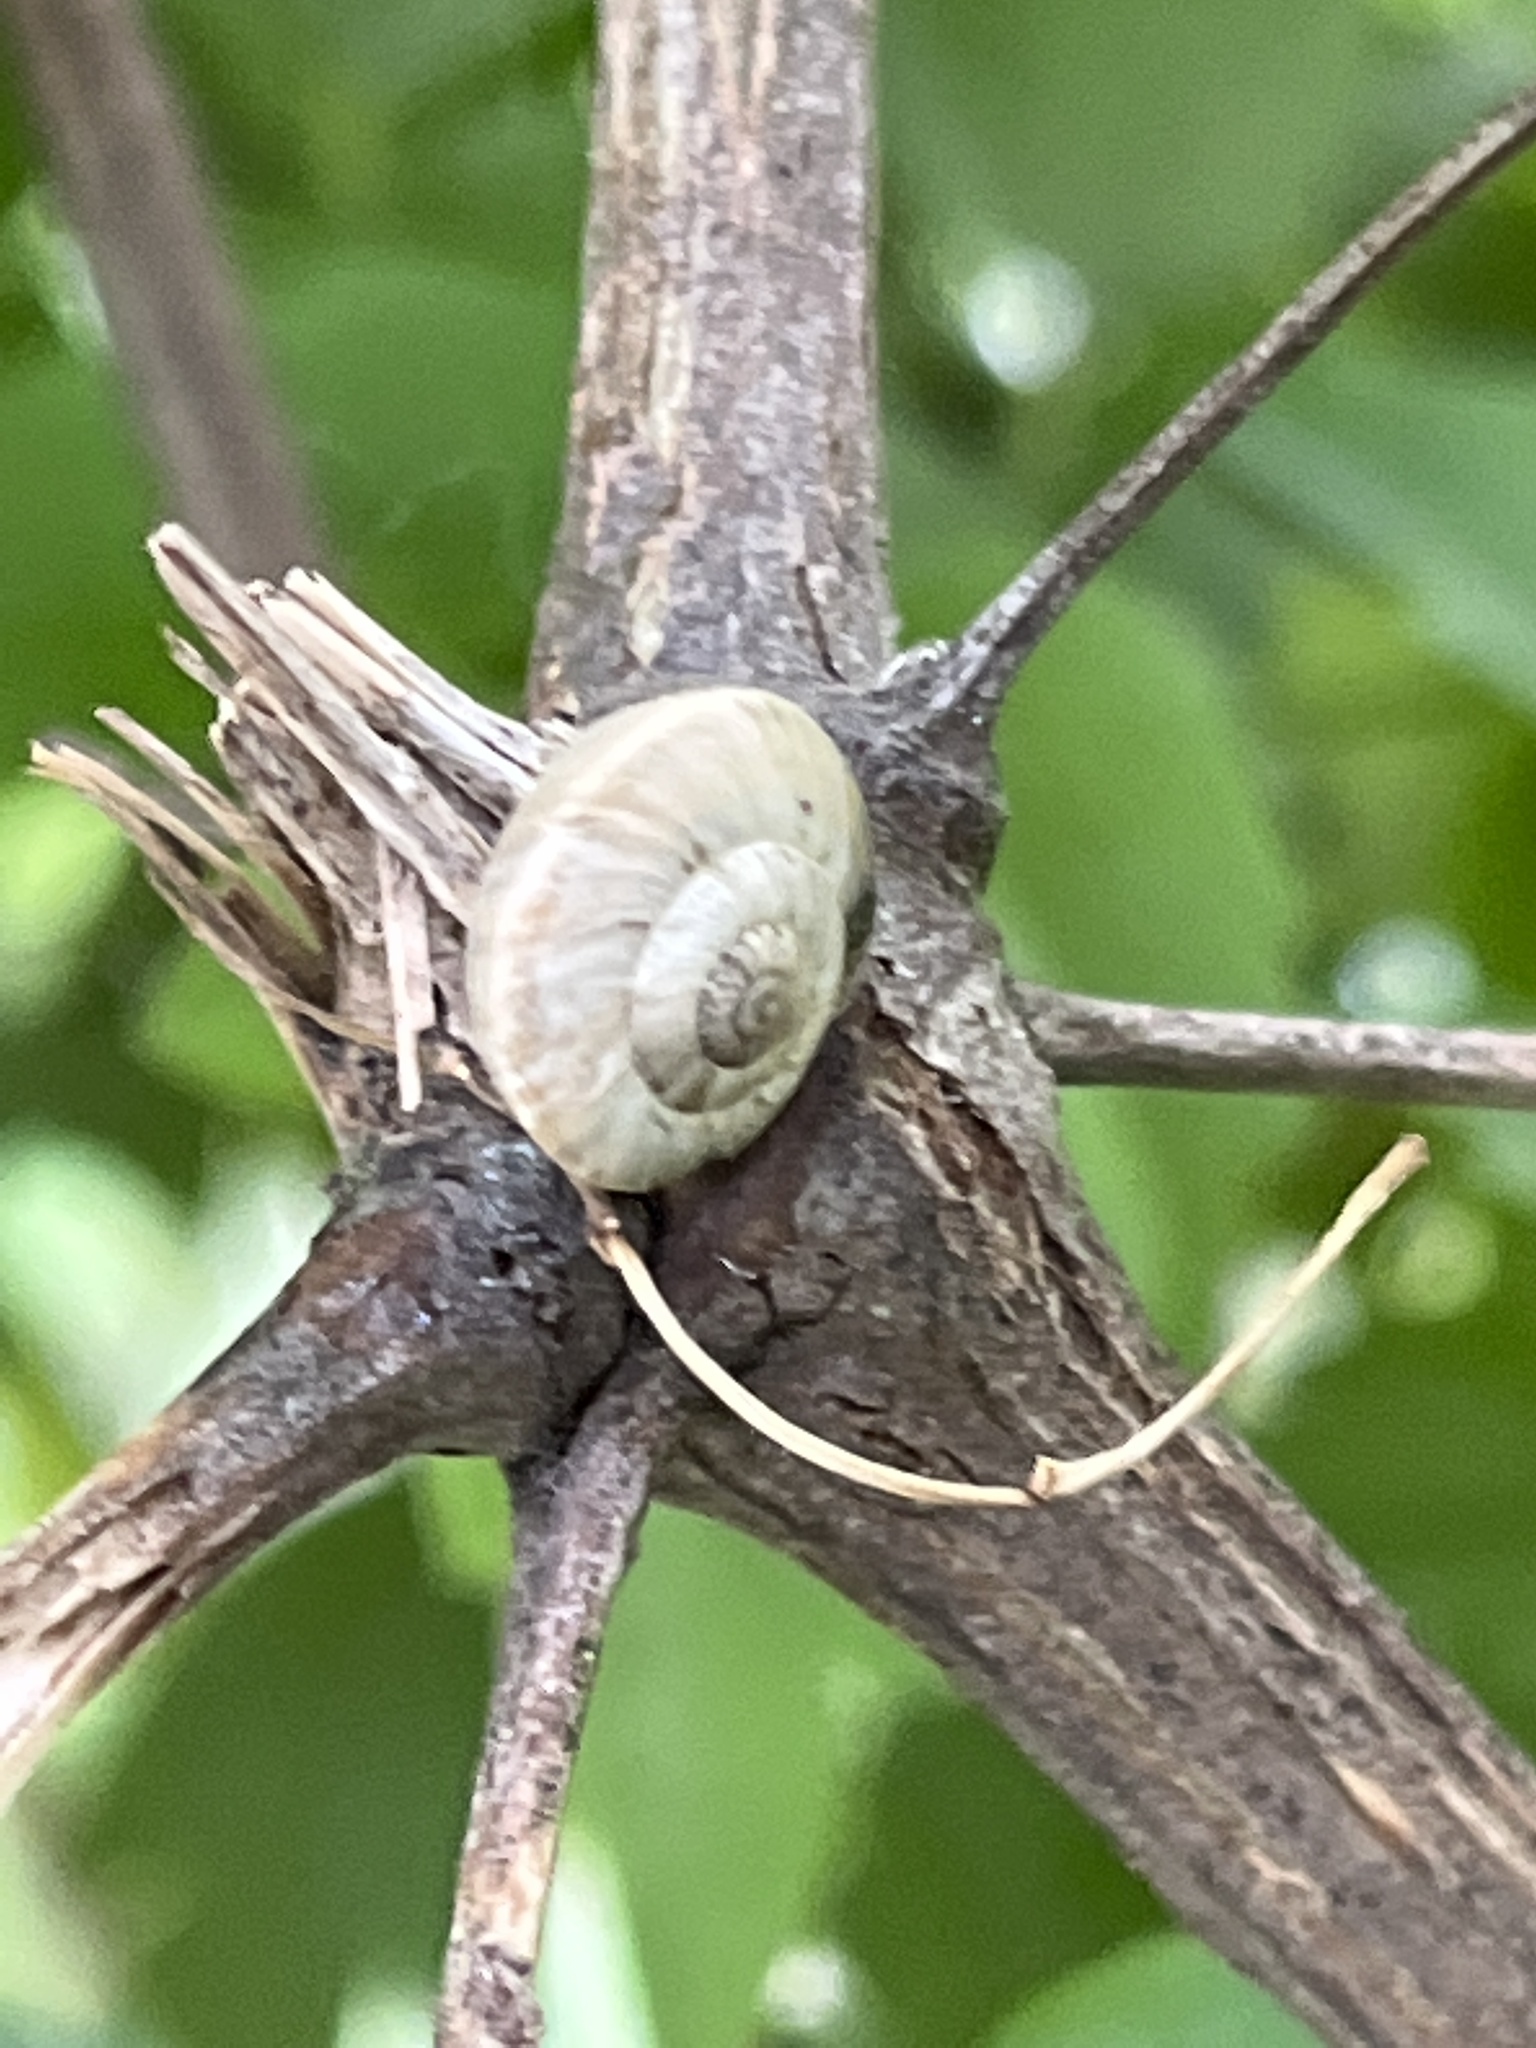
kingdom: Animalia
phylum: Mollusca
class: Gastropoda
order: Stylommatophora
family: Geomitridae
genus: Xerolenta
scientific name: Xerolenta obvia
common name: White heath snail
